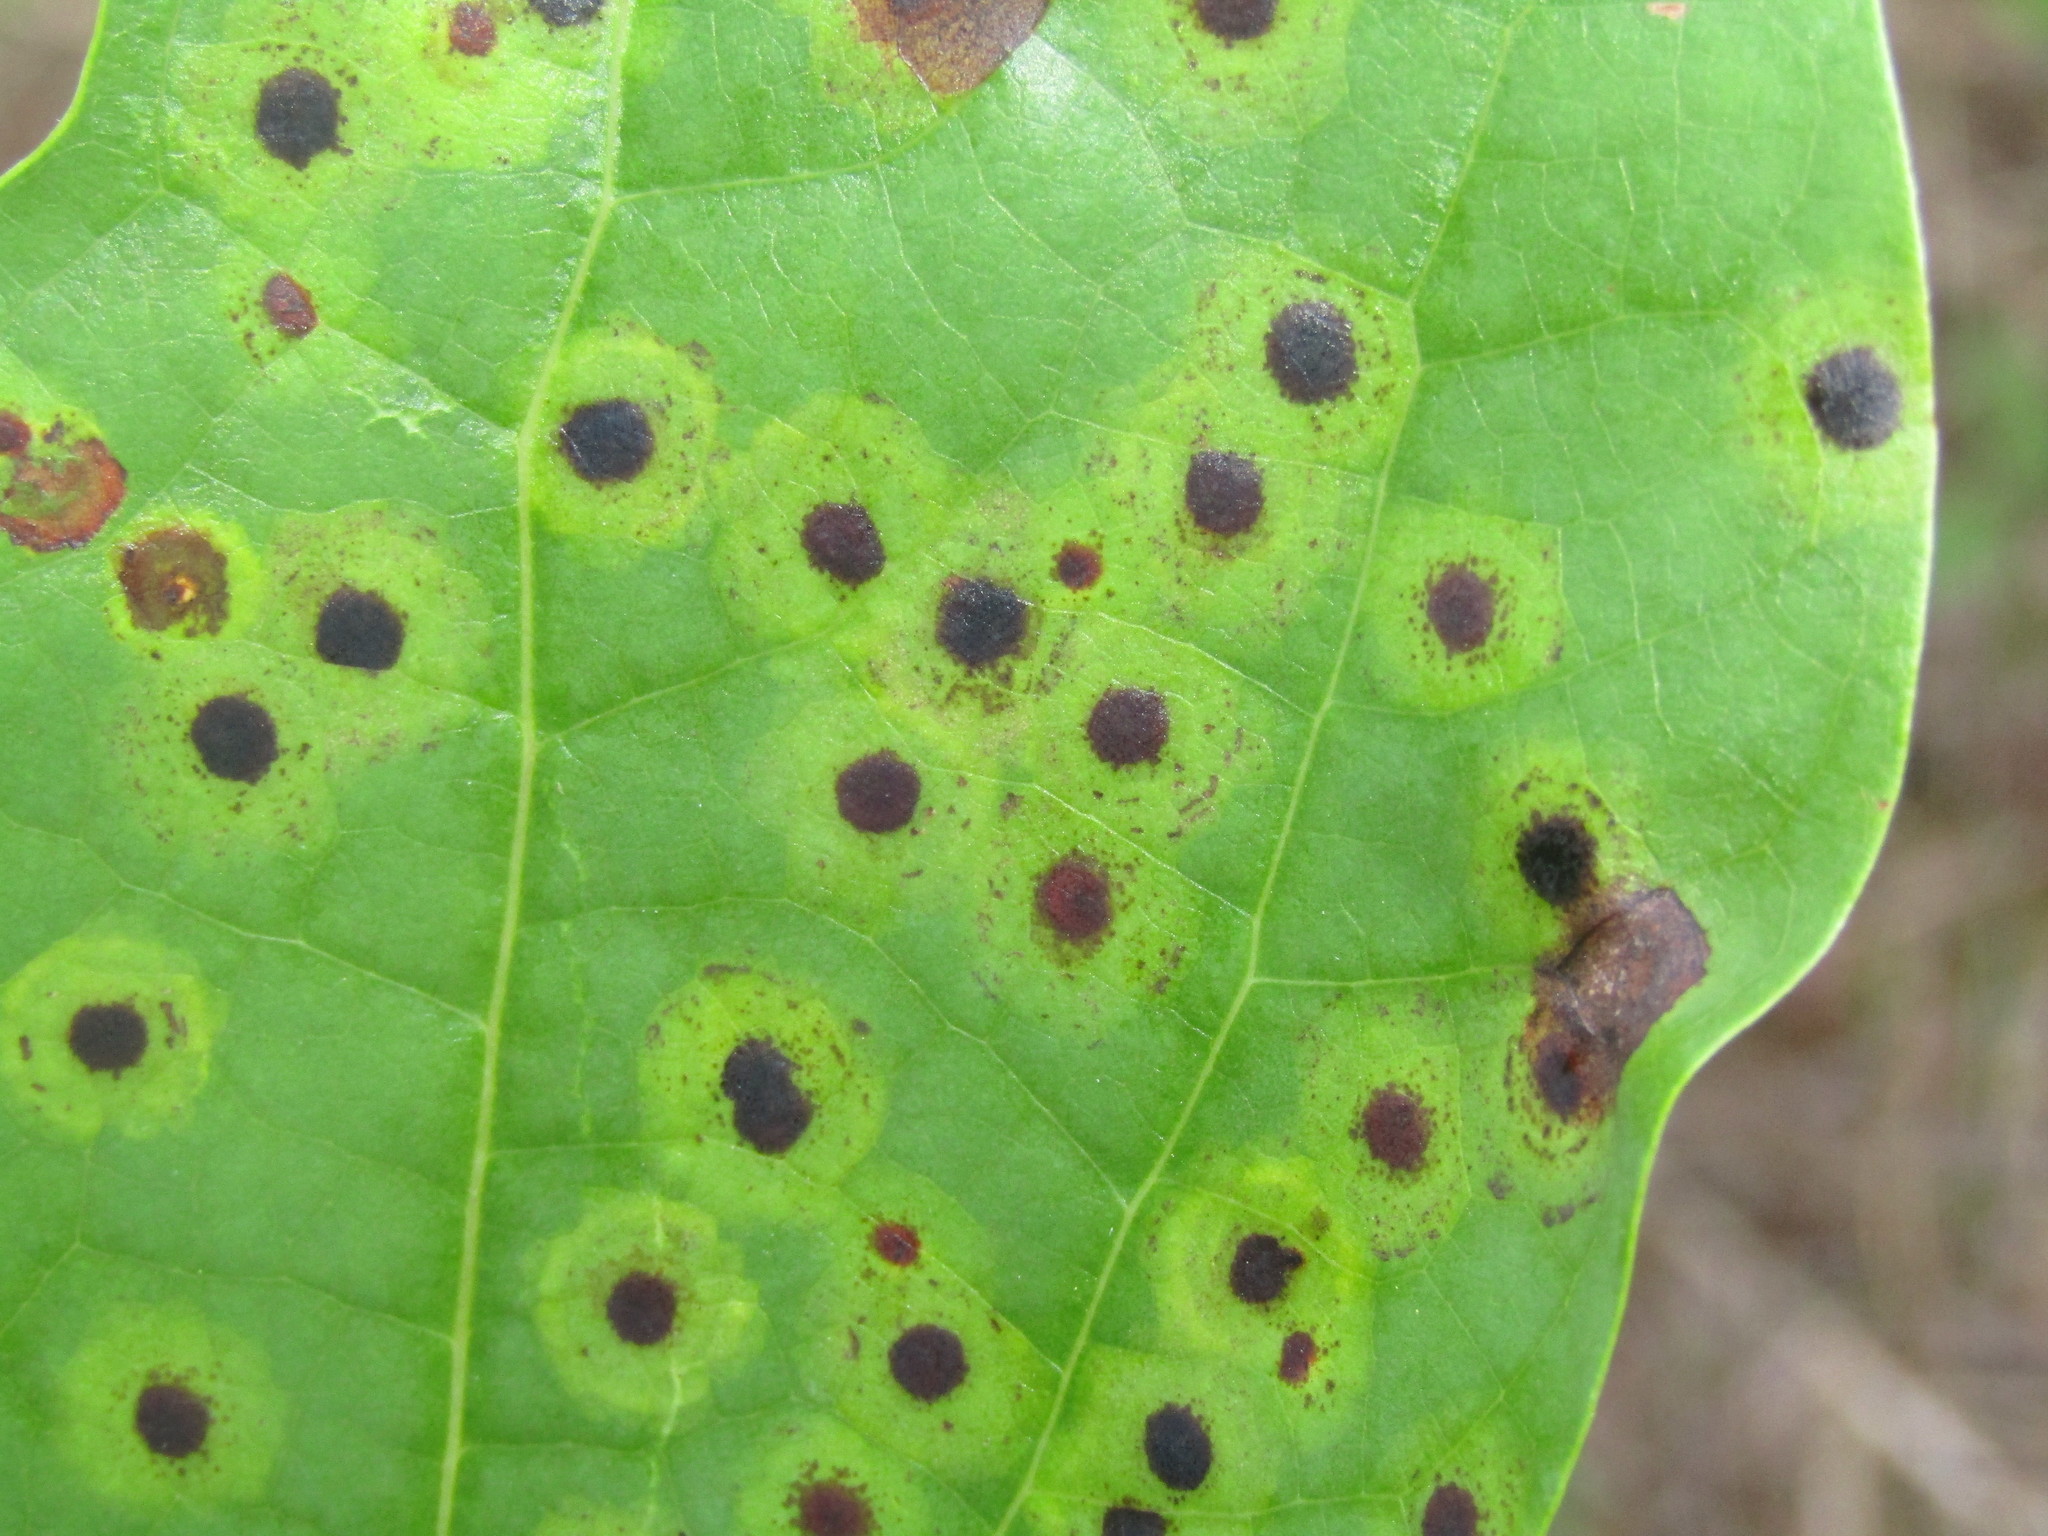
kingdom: Animalia
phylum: Arthropoda
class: Insecta
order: Diptera
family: Cecidomyiidae
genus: Resseliella
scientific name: Resseliella liriodendri
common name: Tulip tree leaf spot gall midge
